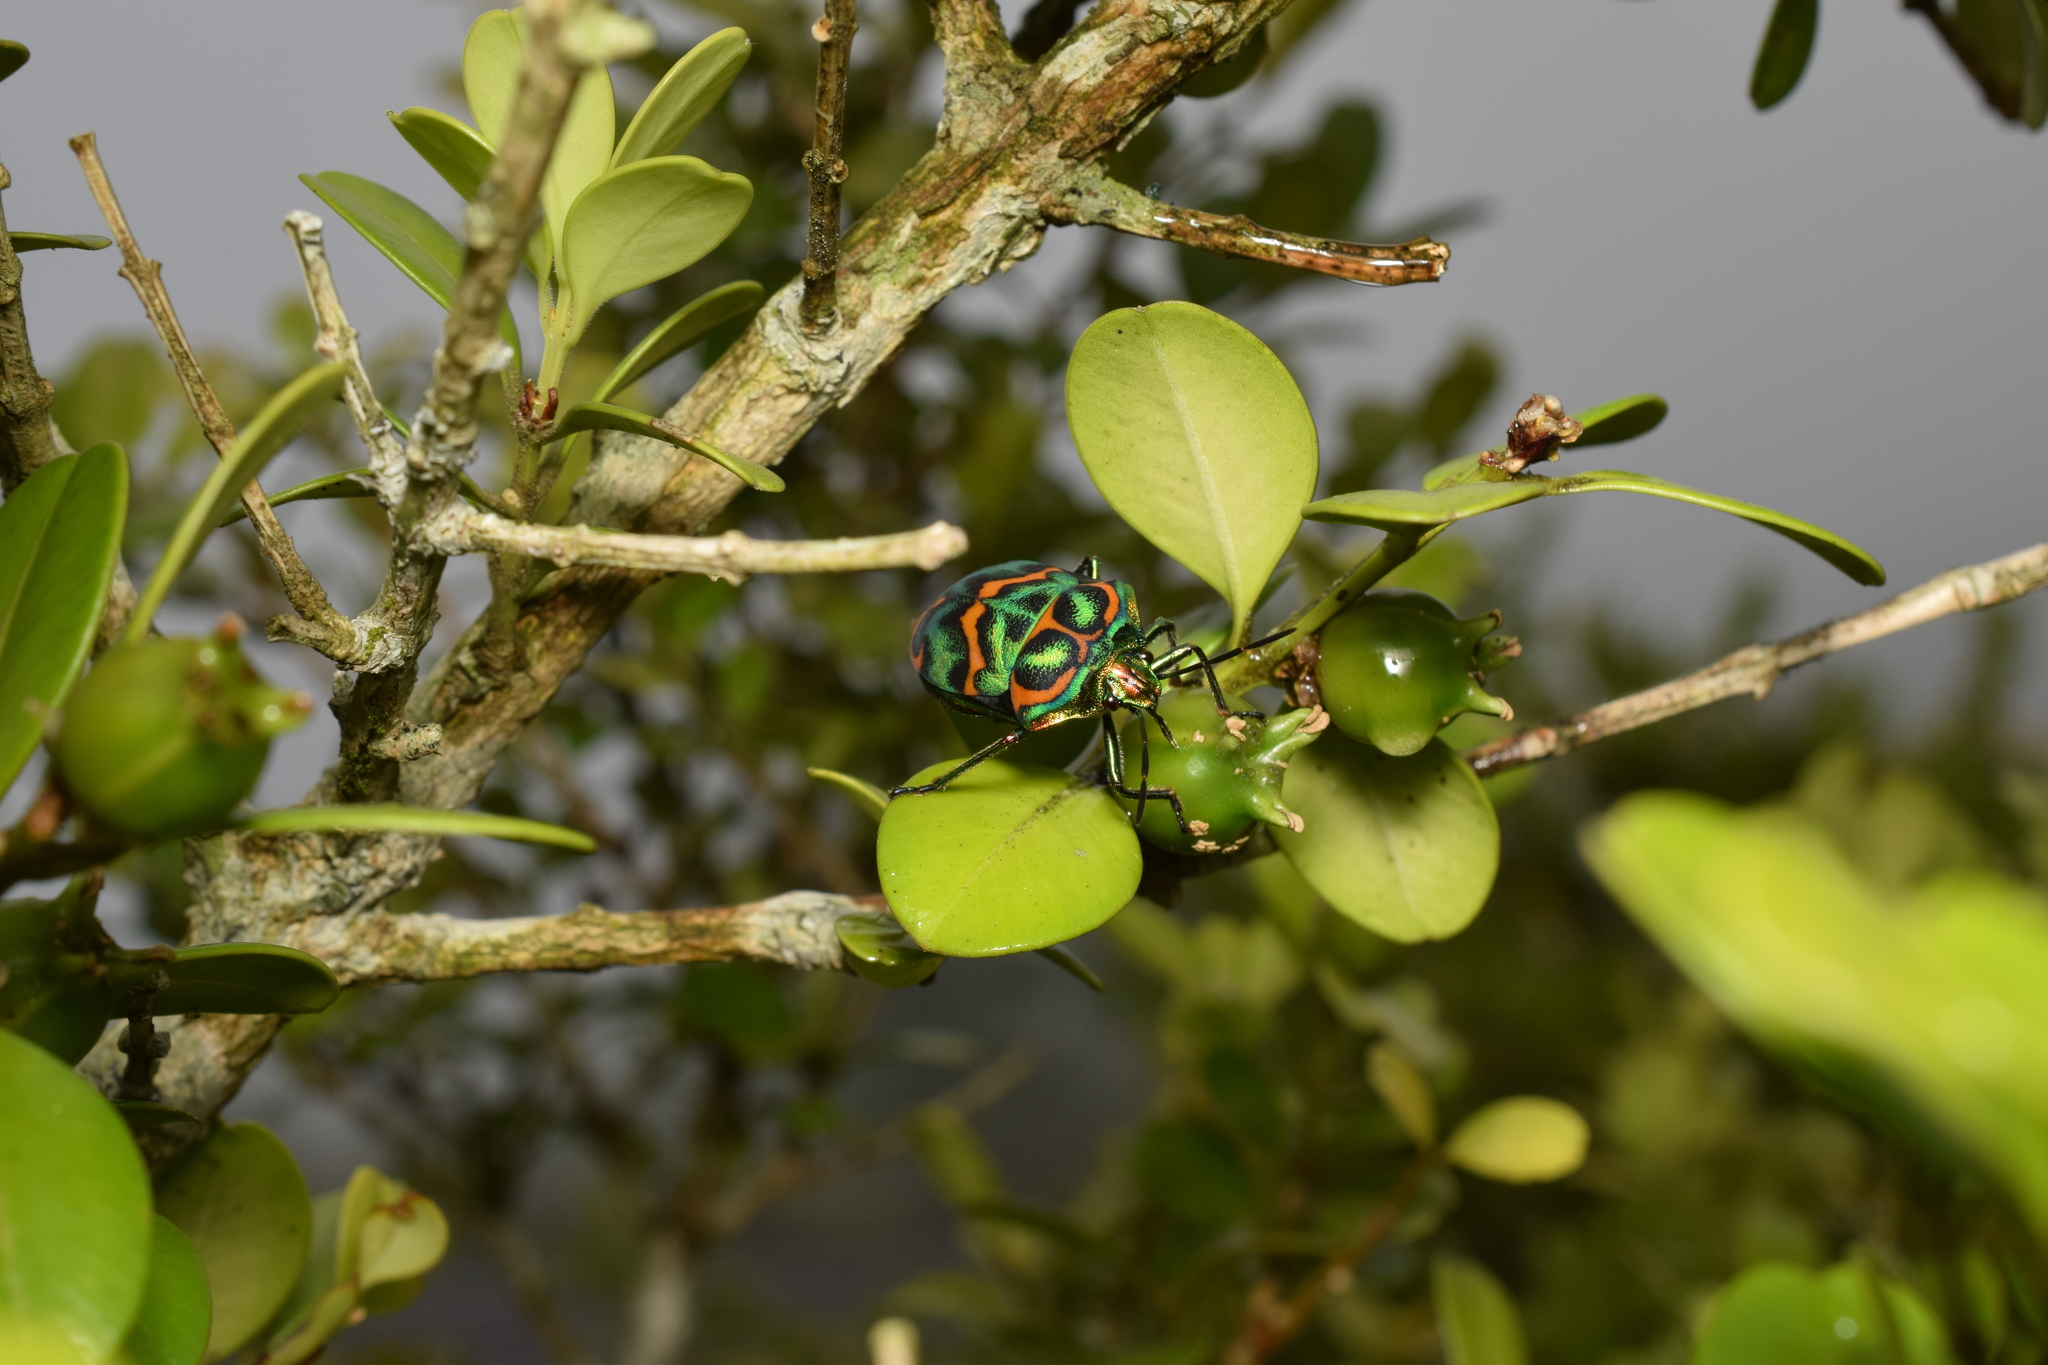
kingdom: Animalia
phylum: Arthropoda
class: Insecta
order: Hemiptera
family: Scutelleridae
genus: Poecilocoris
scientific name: Poecilocoris
